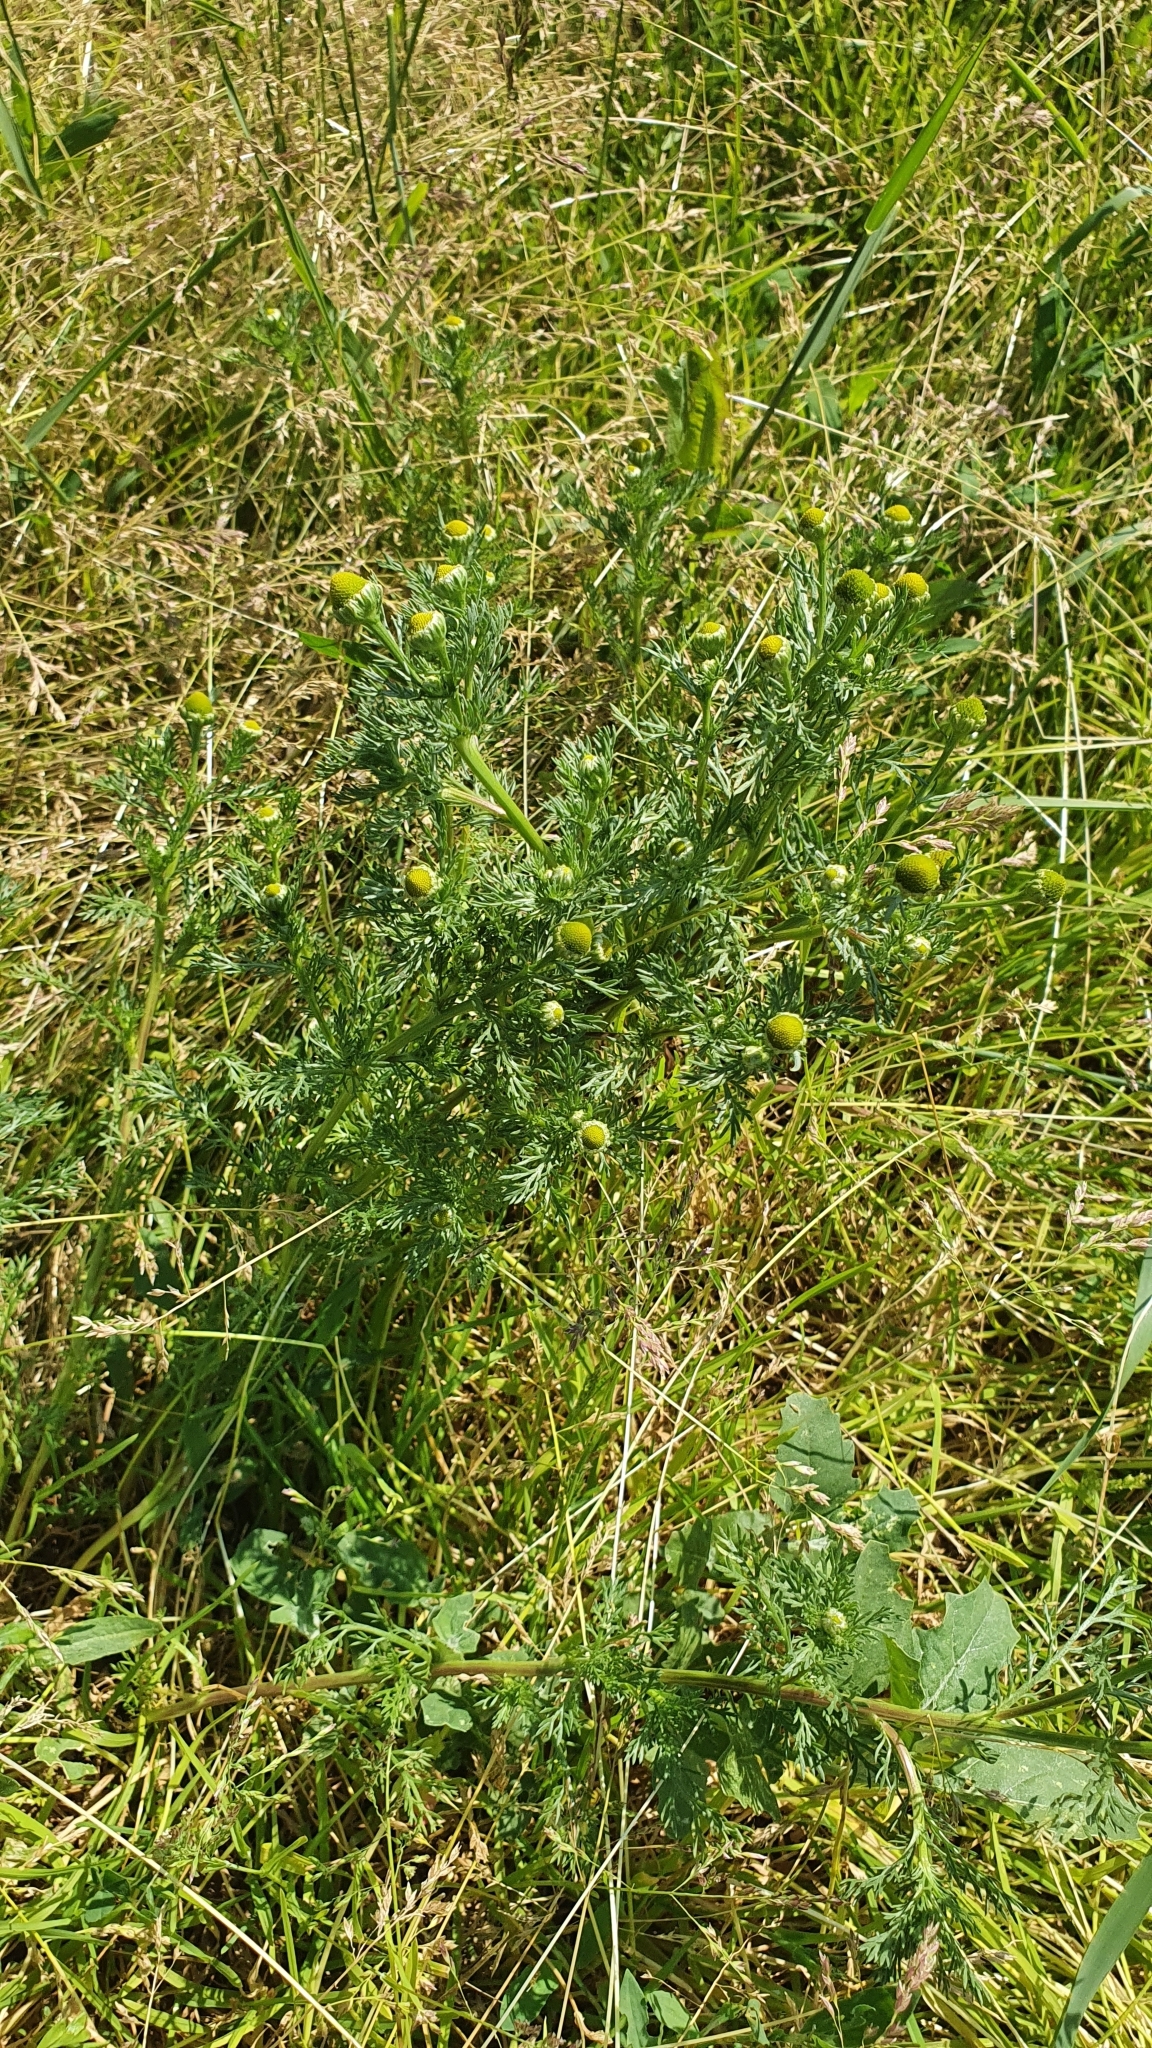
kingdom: Plantae
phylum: Tracheophyta
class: Magnoliopsida
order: Asterales
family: Asteraceae
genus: Matricaria
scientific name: Matricaria discoidea
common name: Disc mayweed
